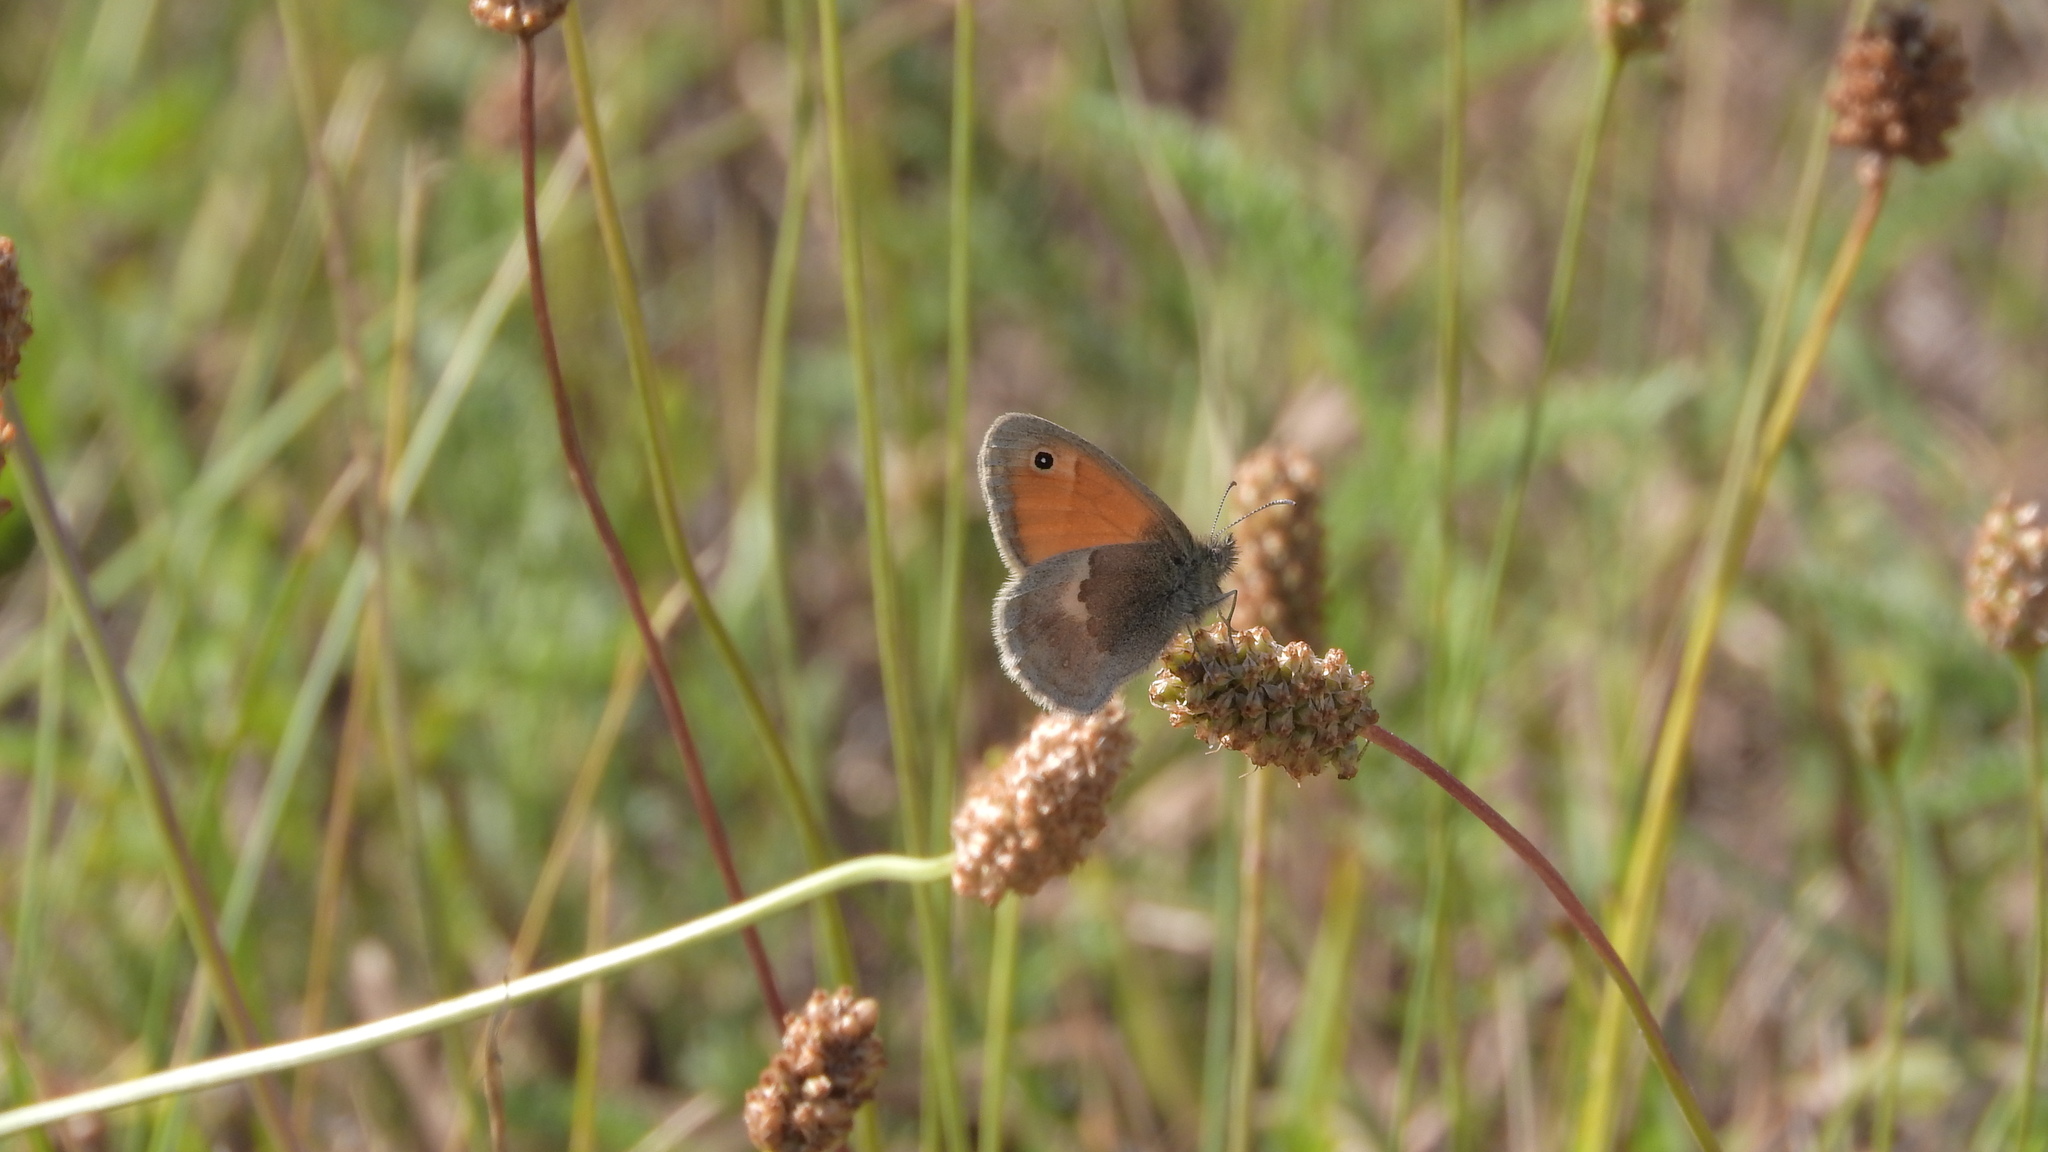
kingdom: Animalia
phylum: Arthropoda
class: Insecta
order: Lepidoptera
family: Nymphalidae
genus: Coenonympha
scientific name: Coenonympha pamphilus
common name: Small heath
